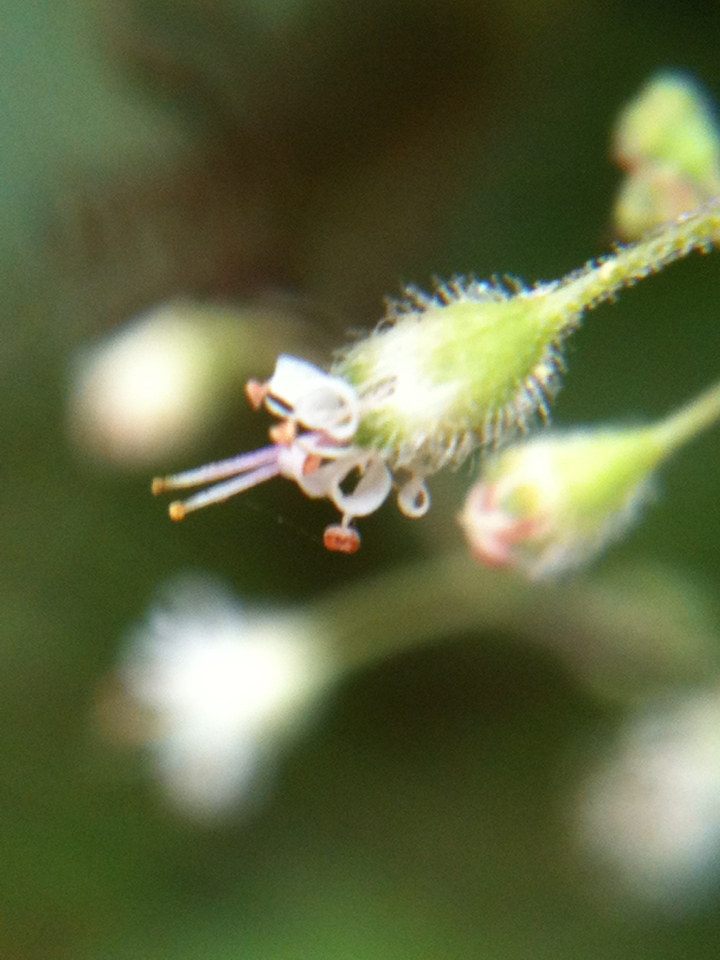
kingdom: Plantae
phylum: Tracheophyta
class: Magnoliopsida
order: Saxifragales
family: Saxifragaceae
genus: Heuchera
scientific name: Heuchera micrantha
